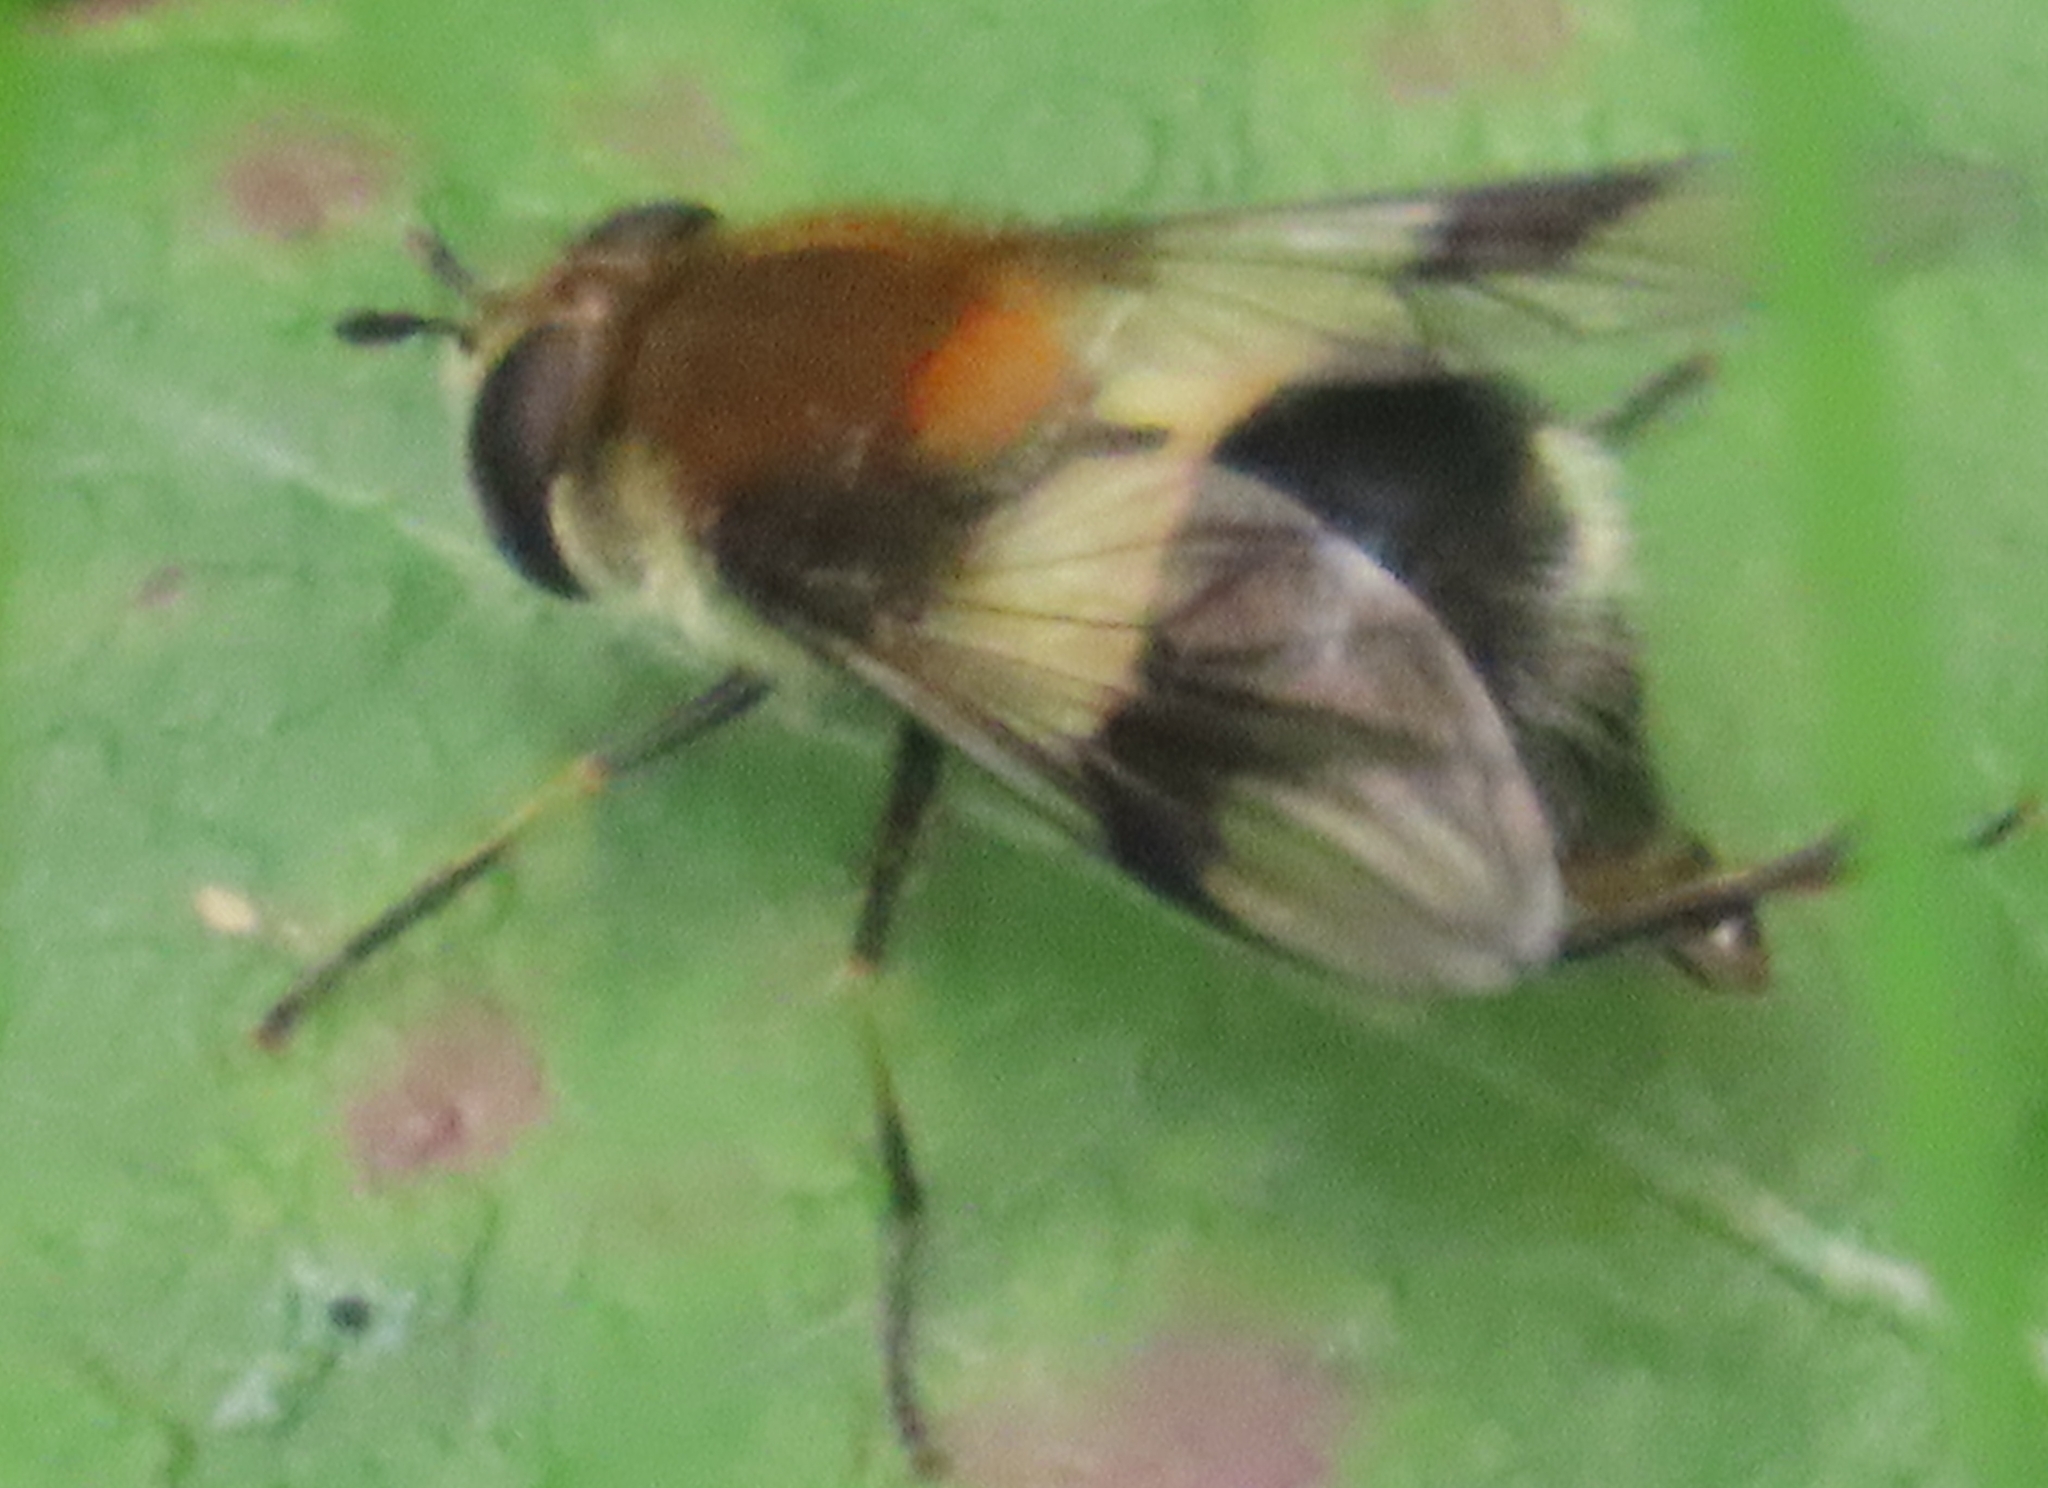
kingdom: Animalia
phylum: Arthropoda
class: Insecta
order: Diptera
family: Syrphidae
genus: Leucozona
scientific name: Leucozona lucorum
